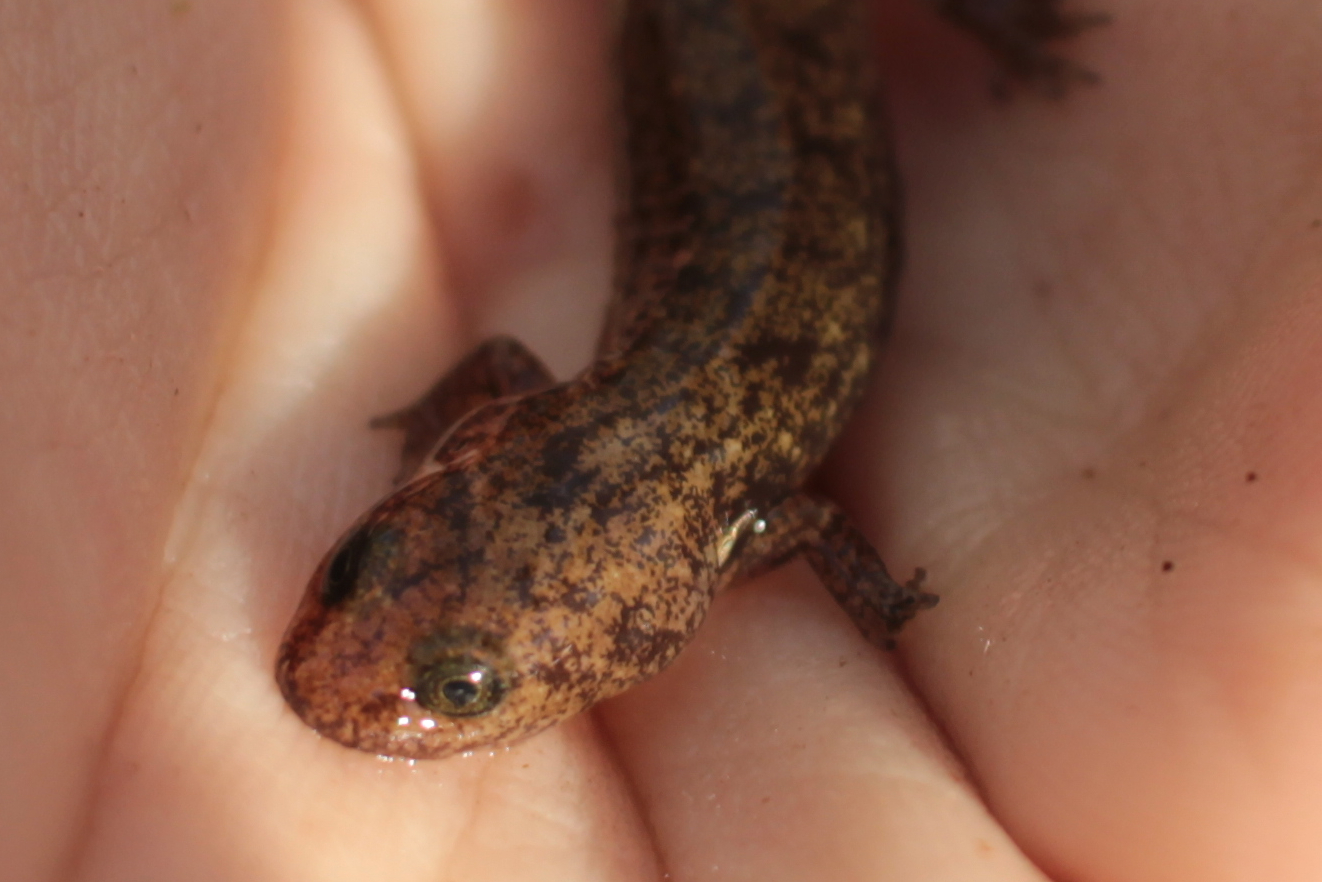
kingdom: Animalia
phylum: Chordata
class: Amphibia
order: Caudata
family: Plethodontidae
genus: Desmognathus
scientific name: Desmognathus
